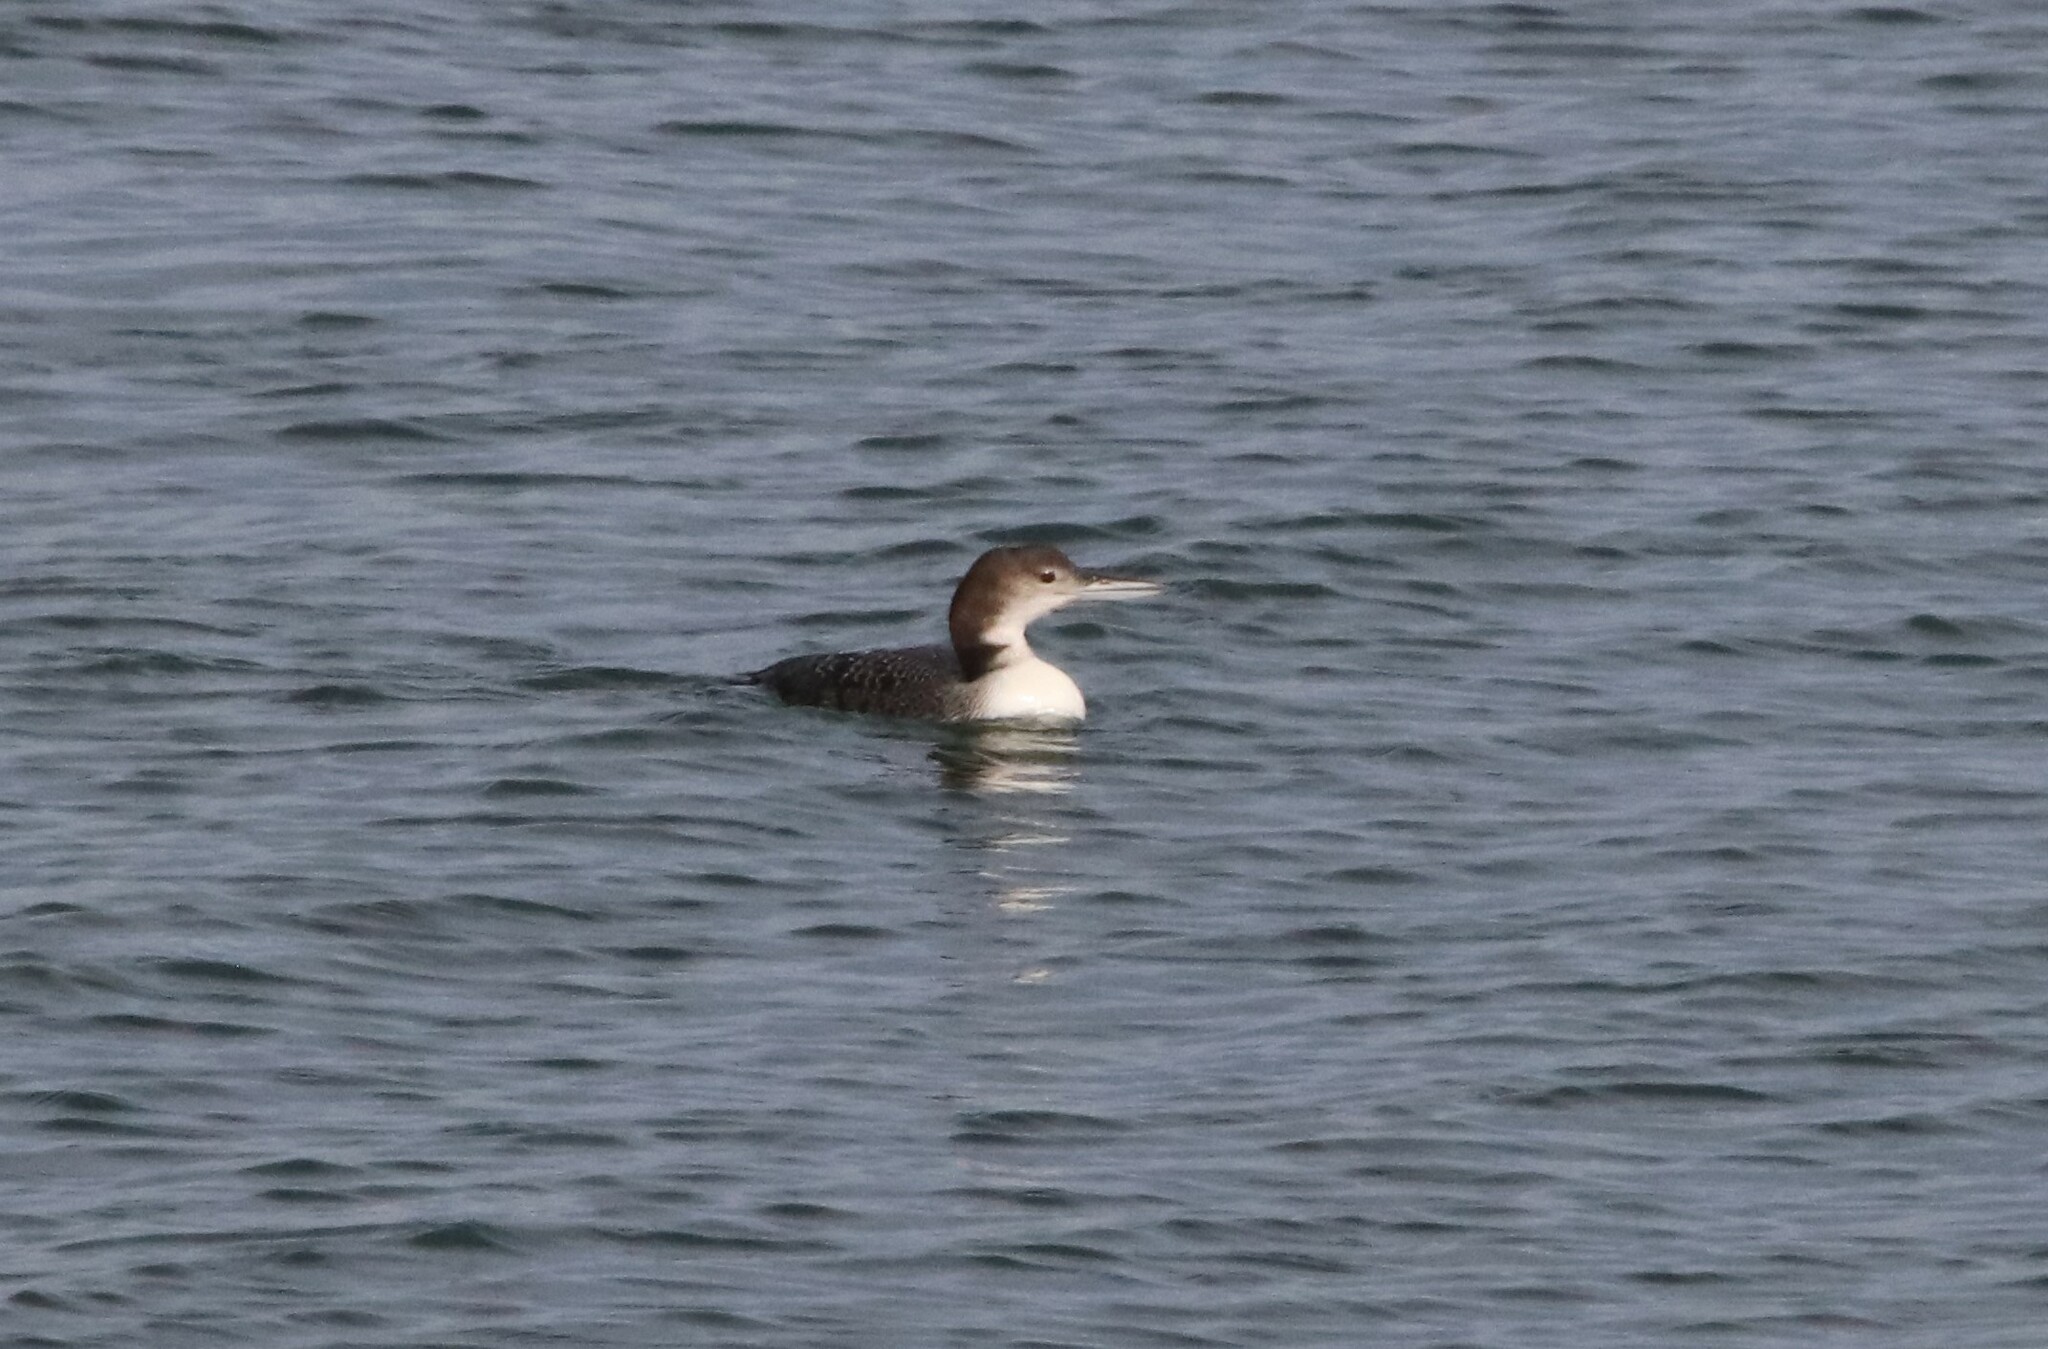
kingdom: Animalia
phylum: Chordata
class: Aves
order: Gaviiformes
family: Gaviidae
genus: Gavia
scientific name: Gavia immer
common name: Common loon
